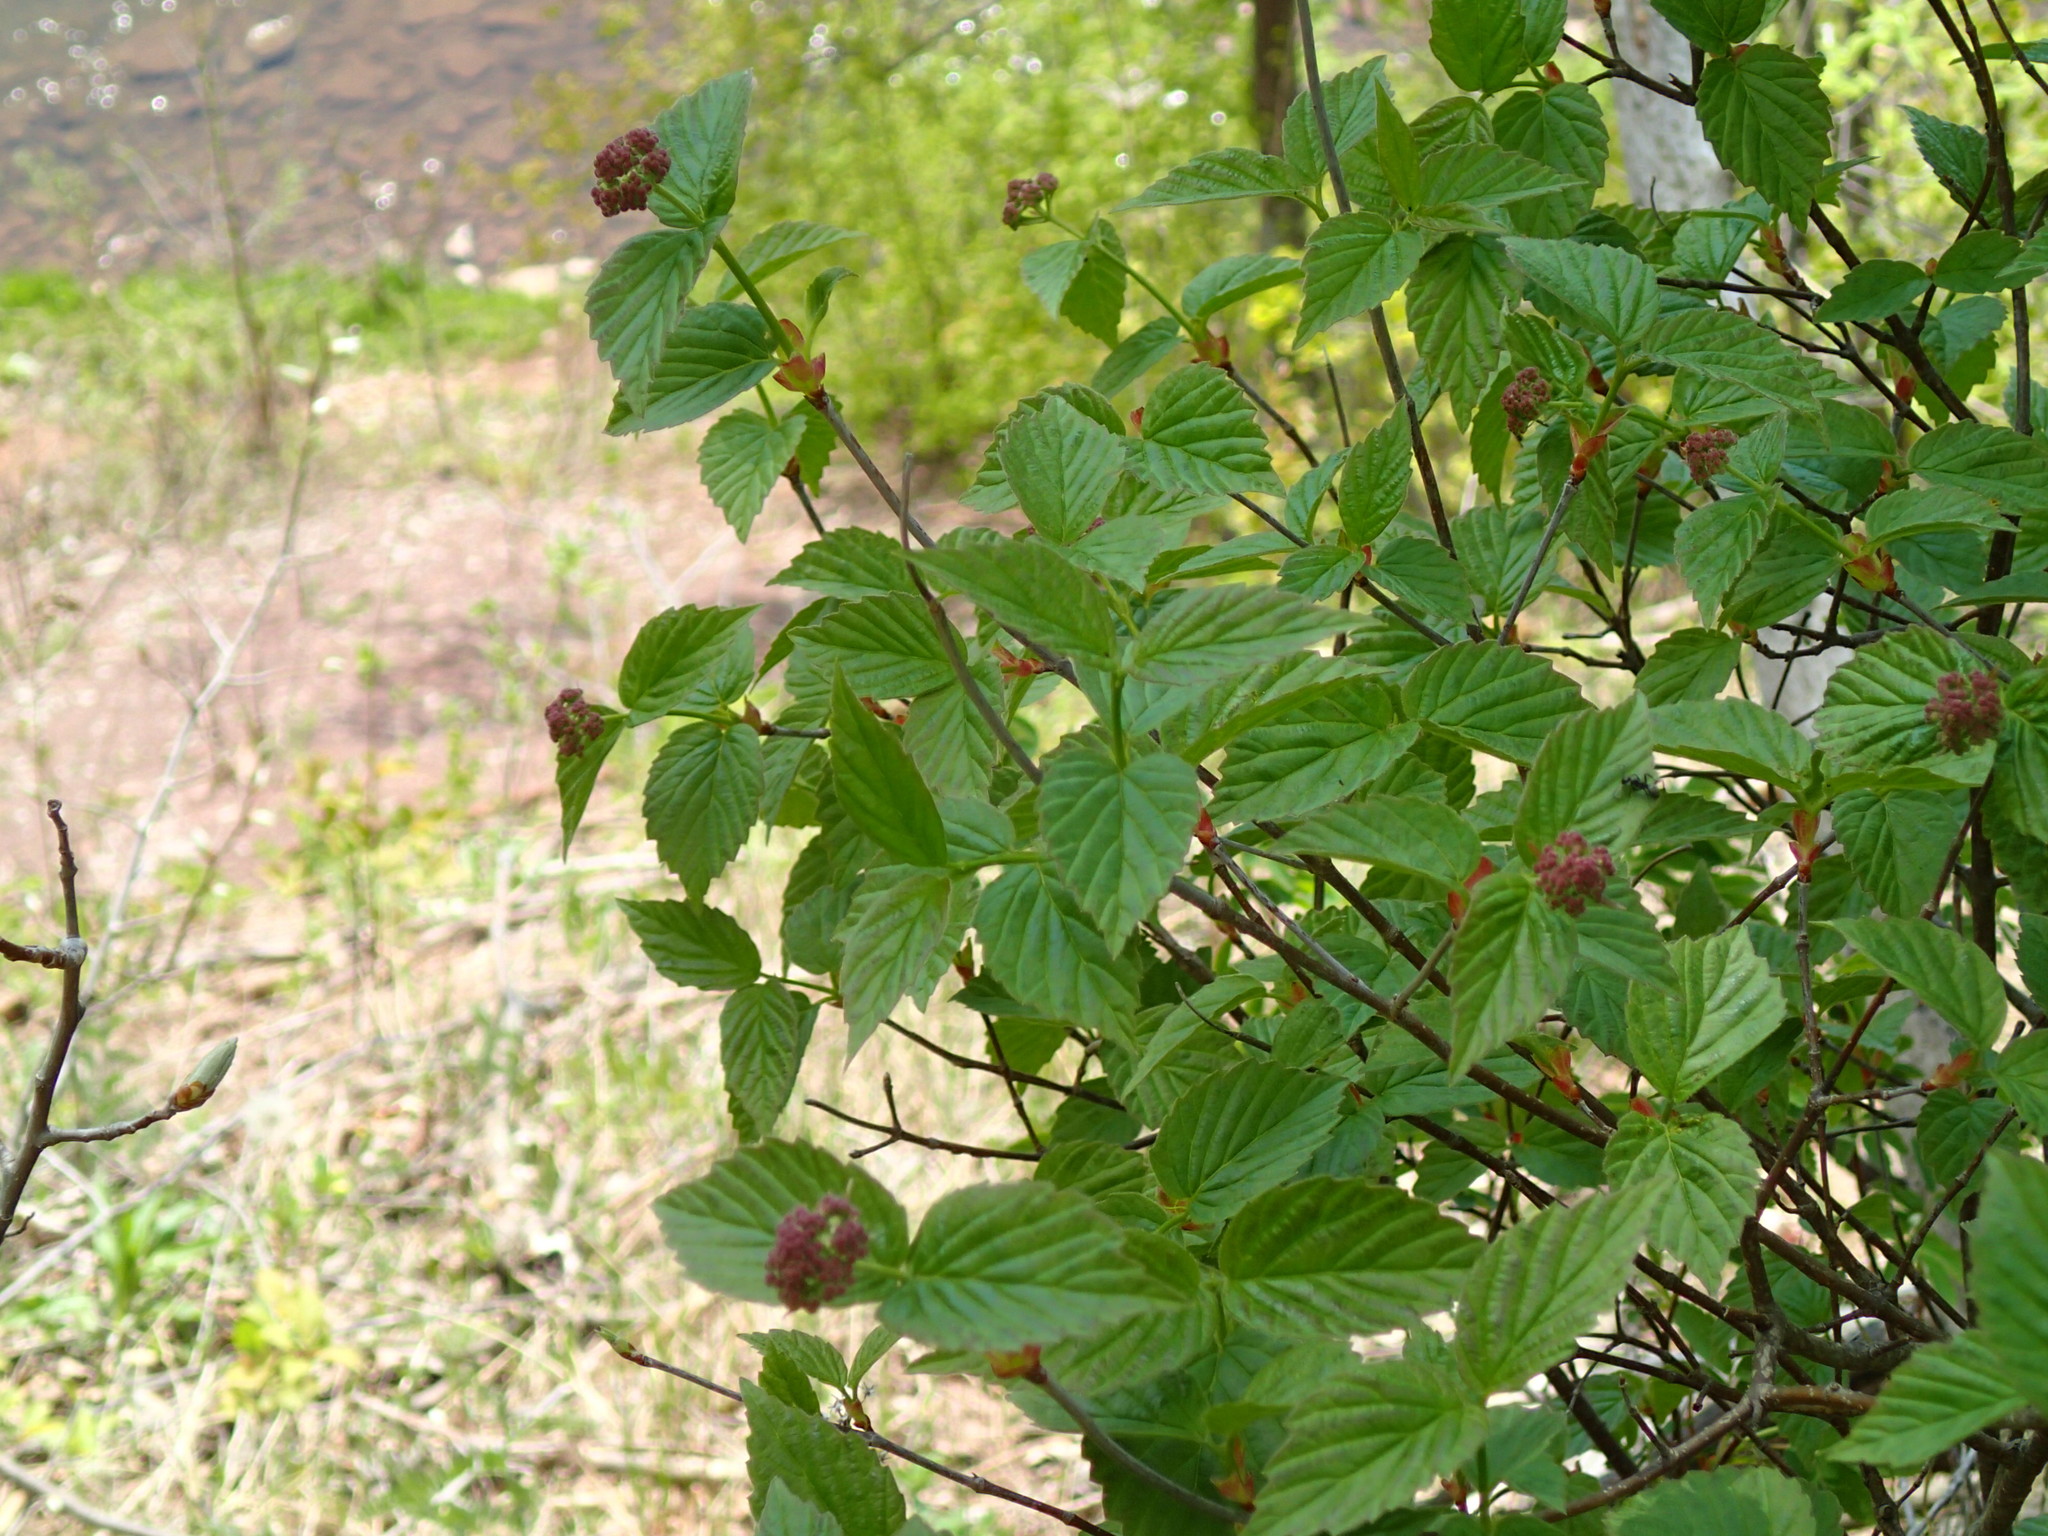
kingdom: Plantae
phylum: Tracheophyta
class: Magnoliopsida
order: Dipsacales
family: Viburnaceae
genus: Viburnum
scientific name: Viburnum rafinesqueanum
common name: Downy arrow-wood
